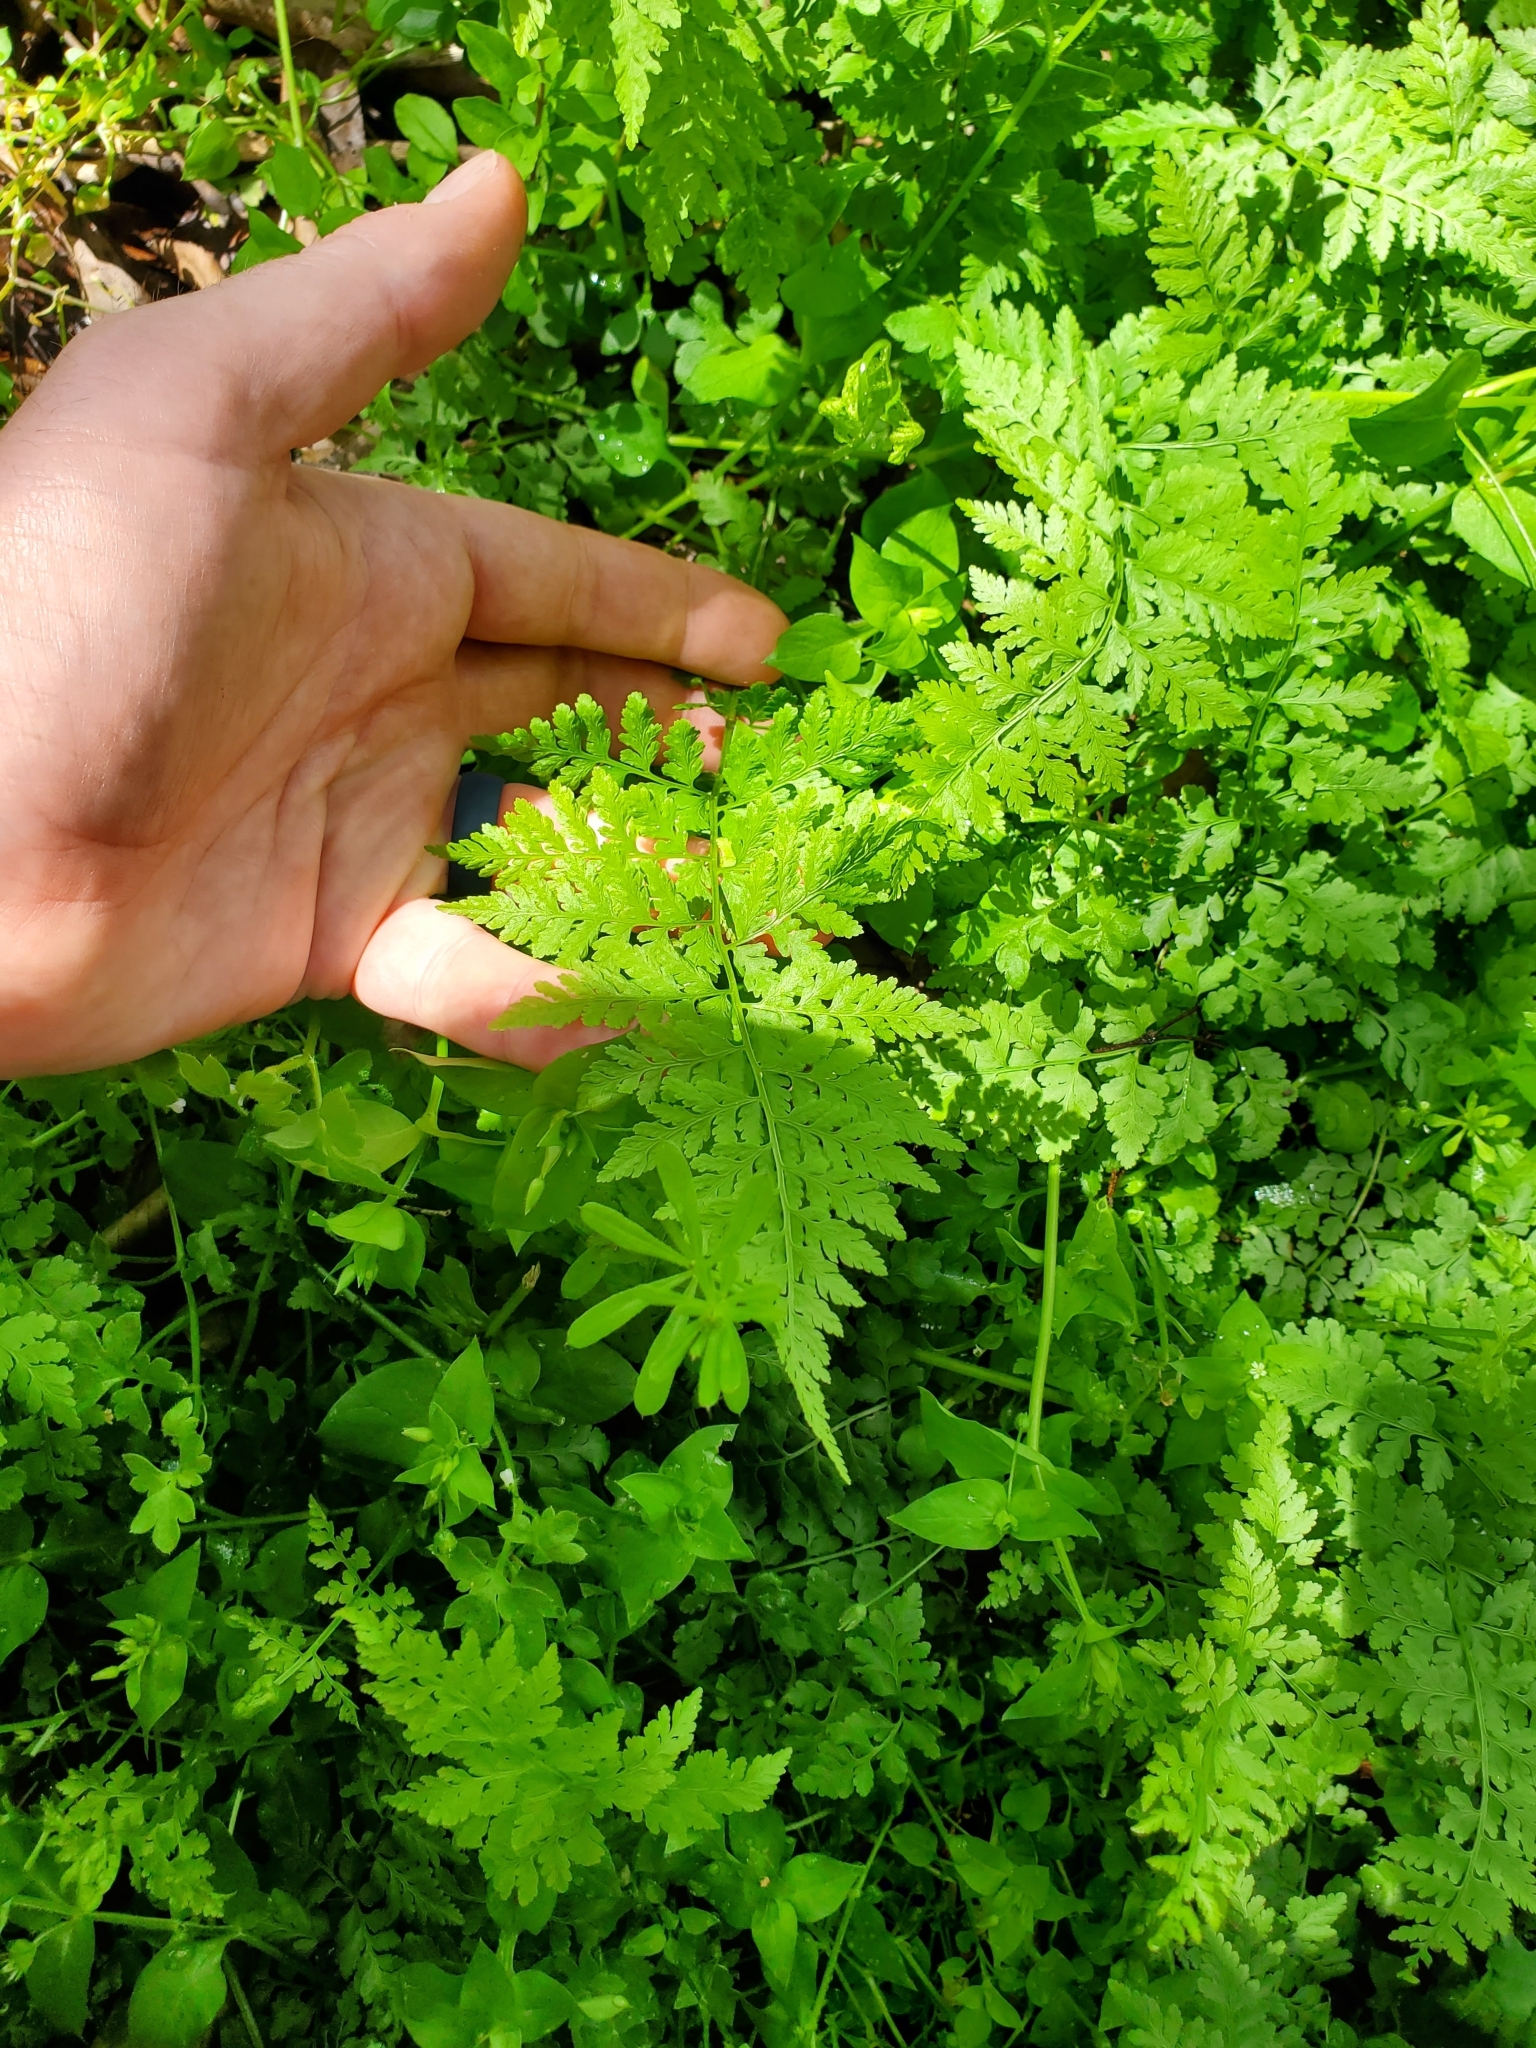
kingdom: Plantae
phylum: Tracheophyta
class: Polypodiopsida
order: Polypodiales
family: Cystopteridaceae
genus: Cystopteris
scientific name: Cystopteris protrusa
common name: Lowland brittle fern
